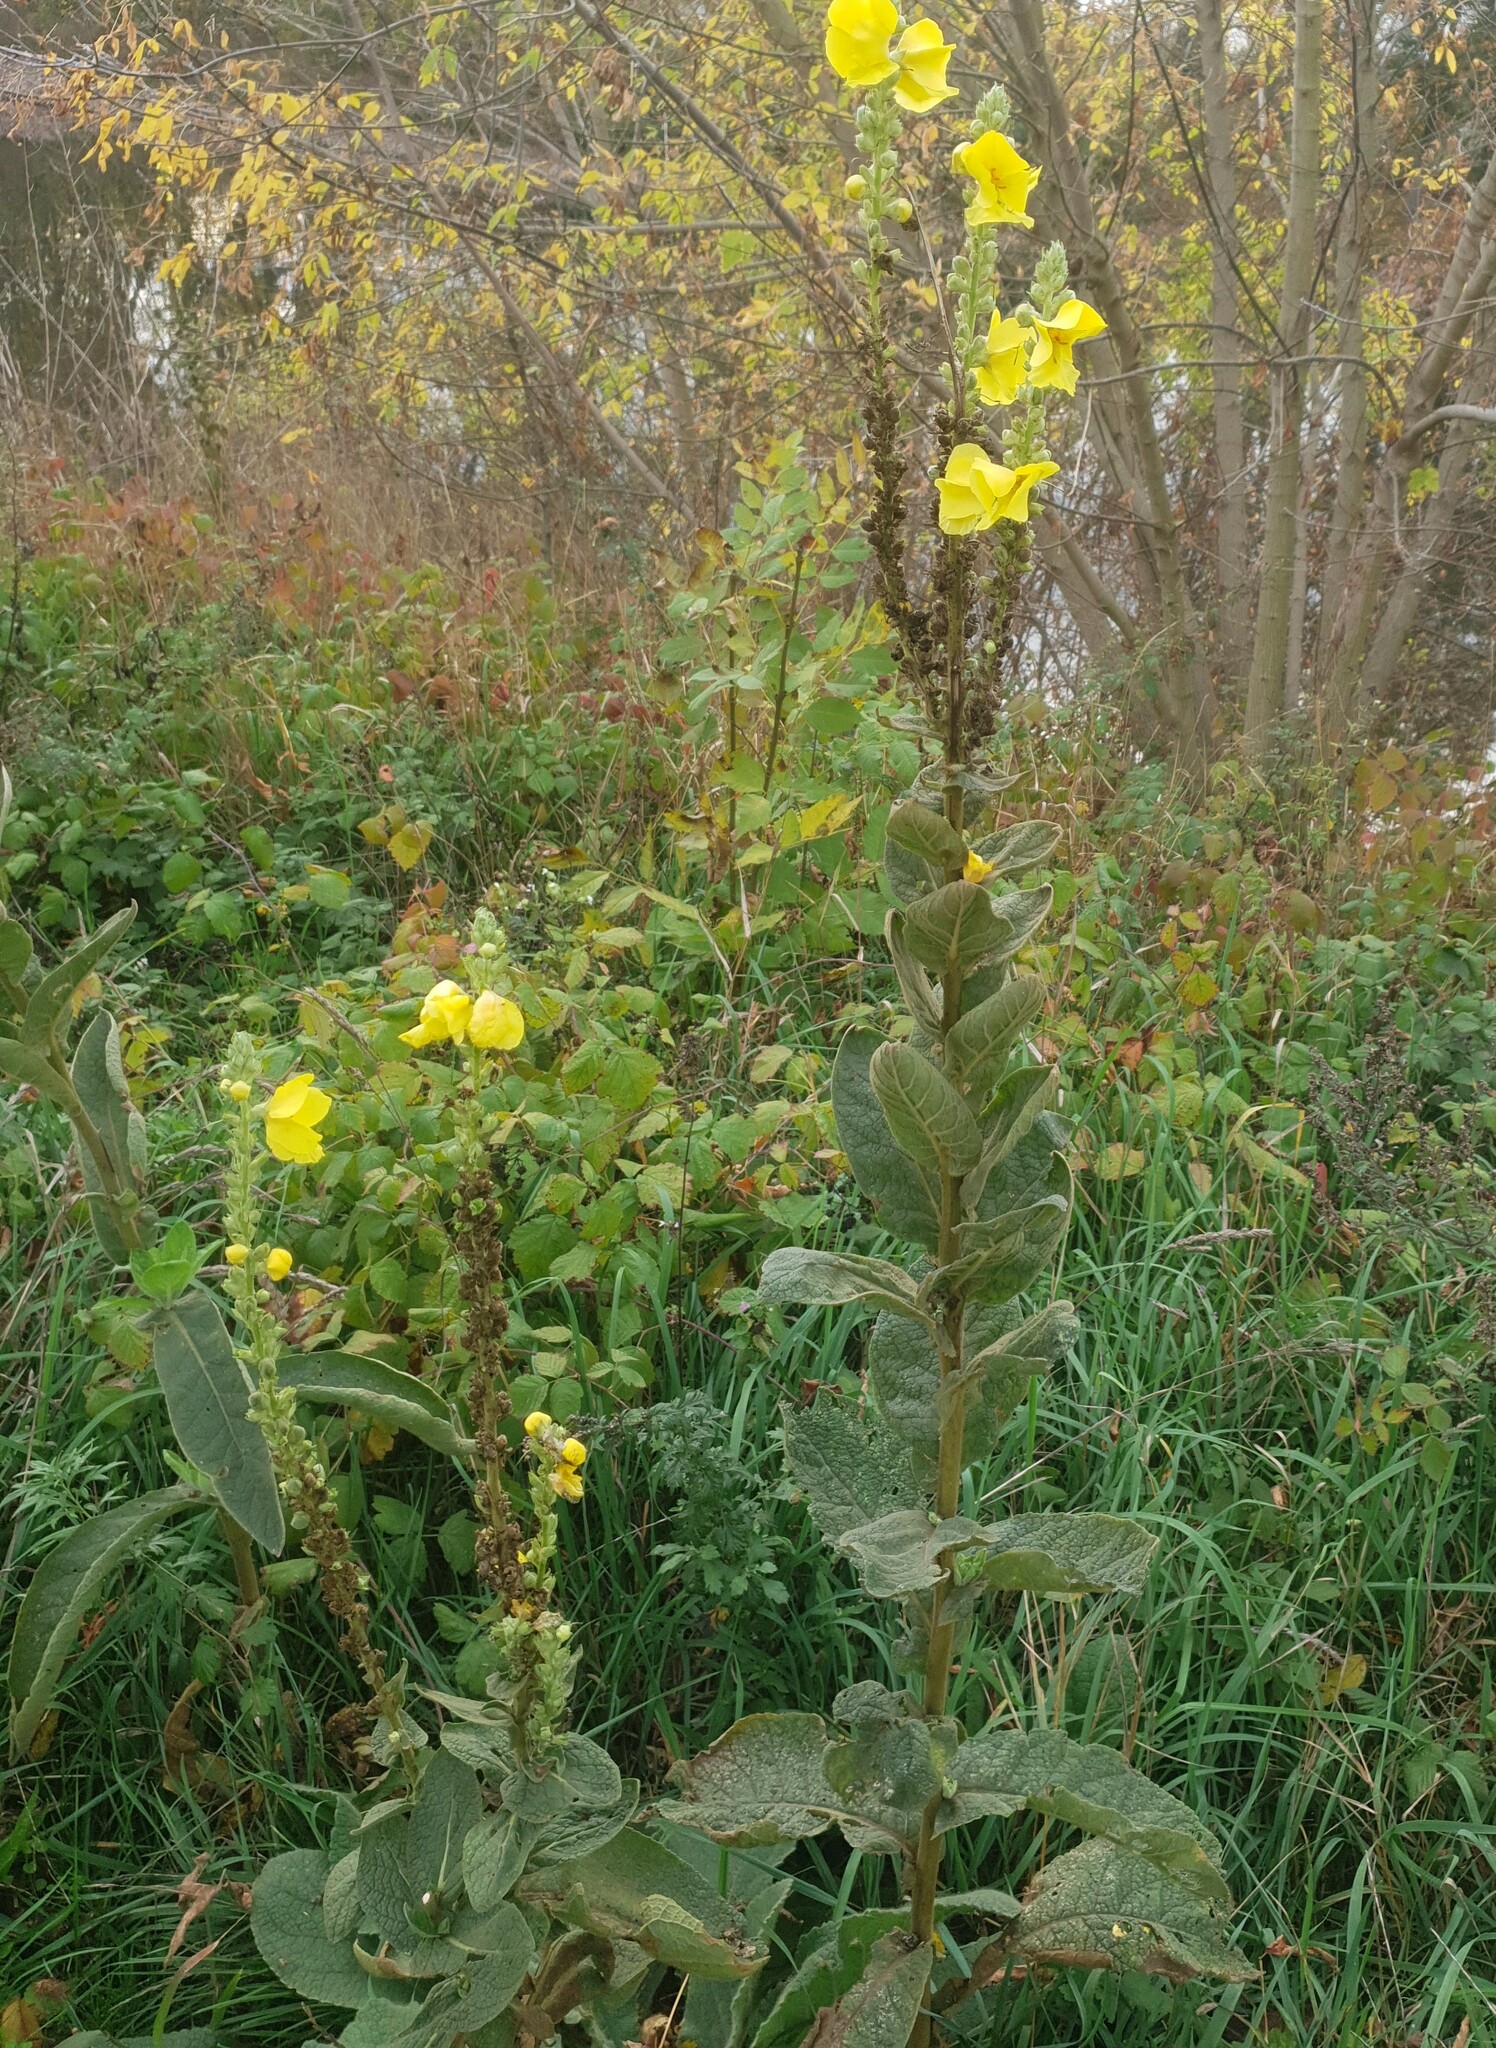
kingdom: Plantae
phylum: Tracheophyta
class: Magnoliopsida
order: Lamiales
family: Scrophulariaceae
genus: Verbascum
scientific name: Verbascum phlomoides
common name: Orange mullein
